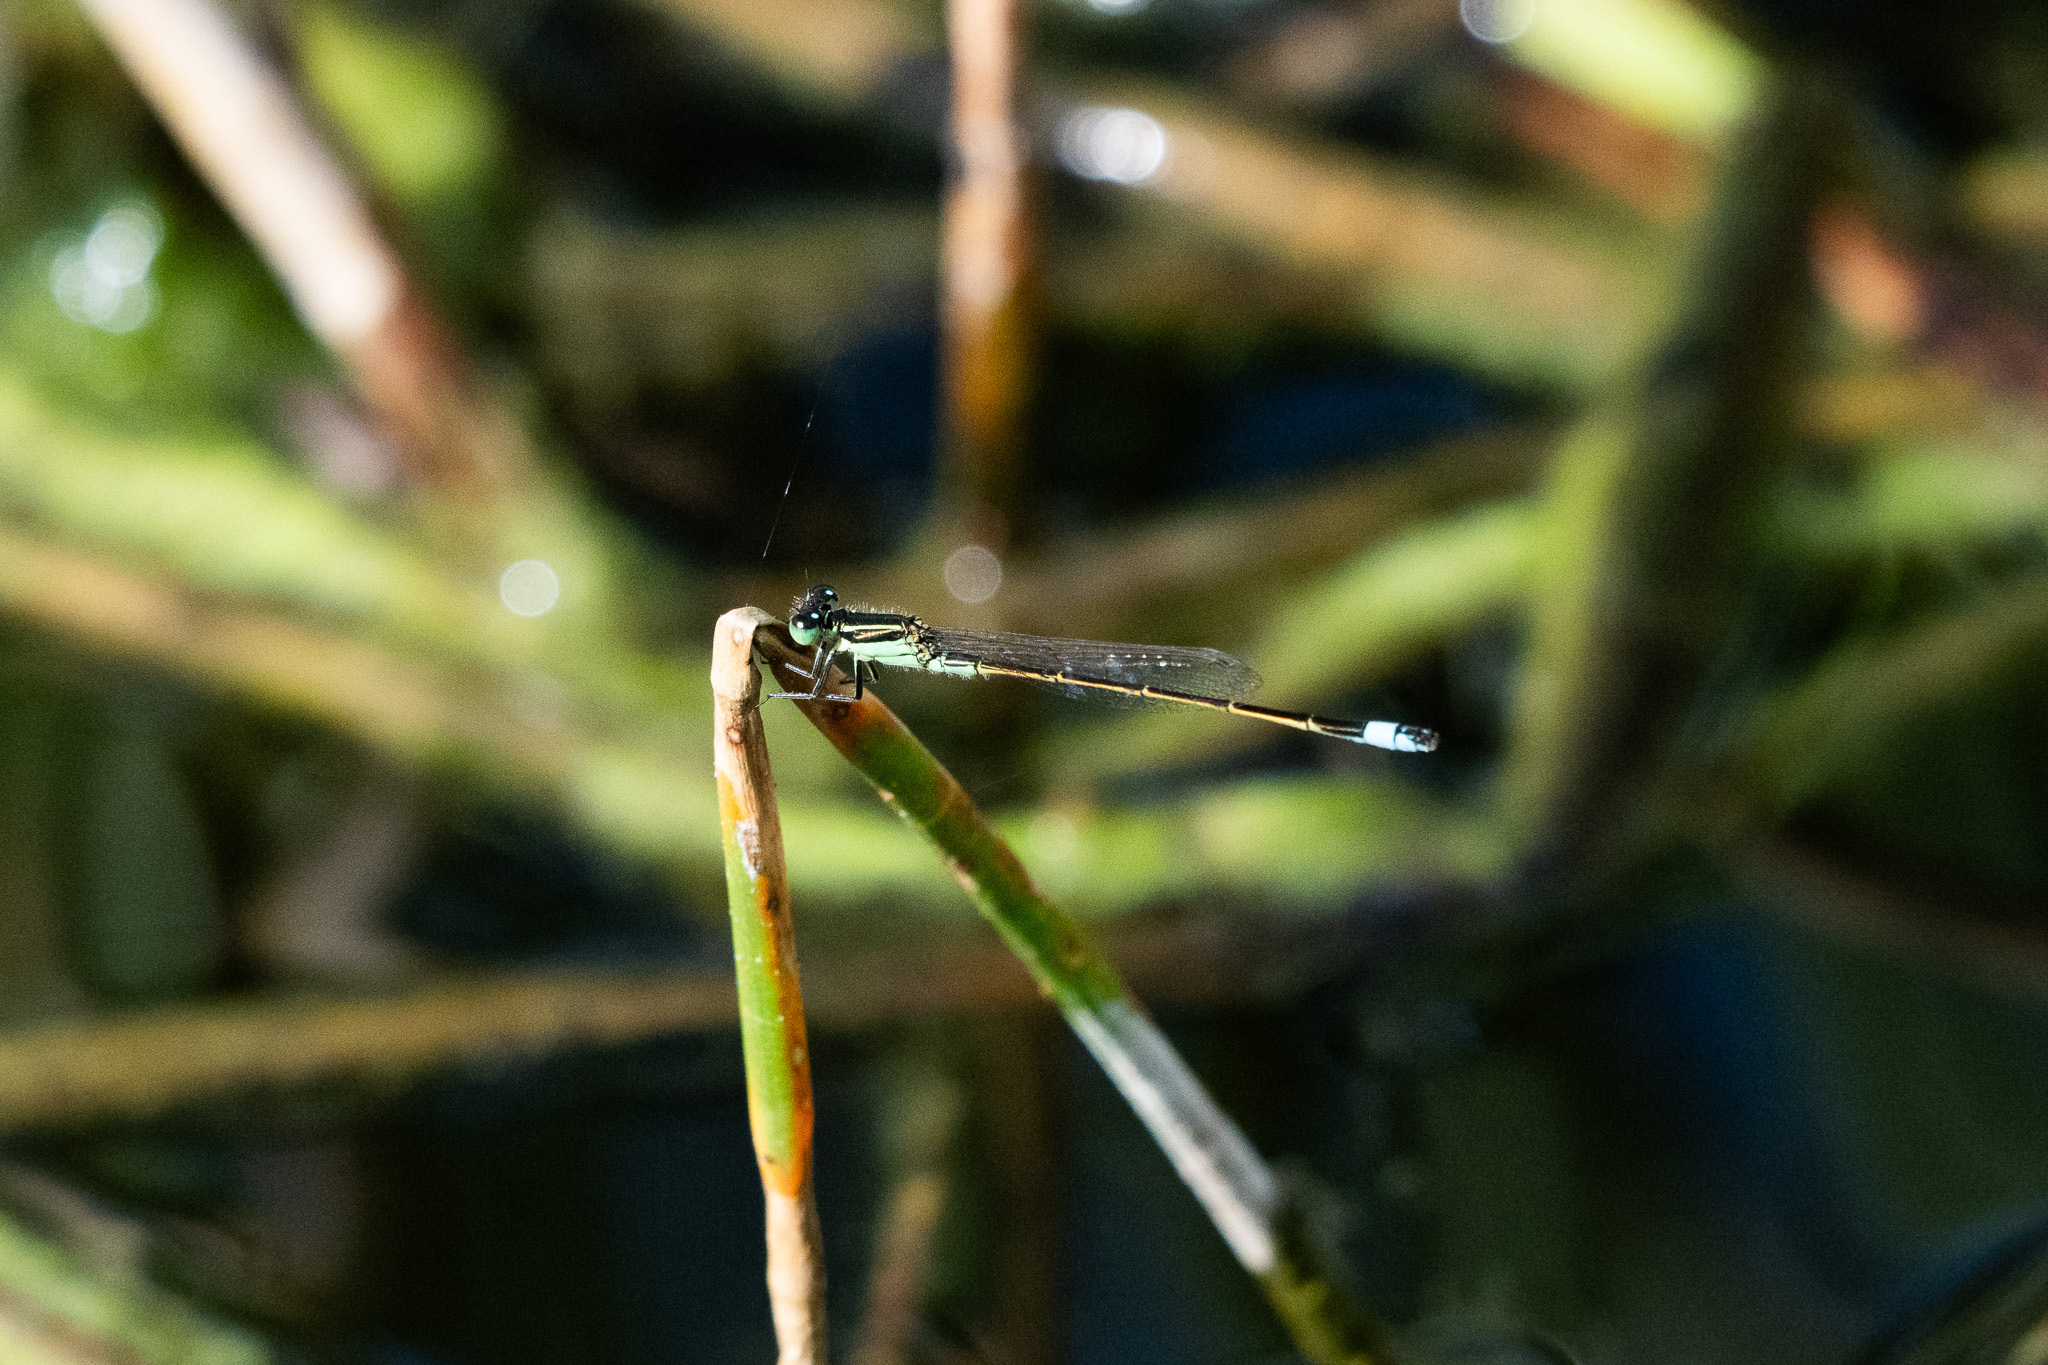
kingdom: Animalia
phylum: Arthropoda
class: Insecta
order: Odonata
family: Coenagrionidae
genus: Ischnura
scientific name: Ischnura ramburii
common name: Rambur's forktail
